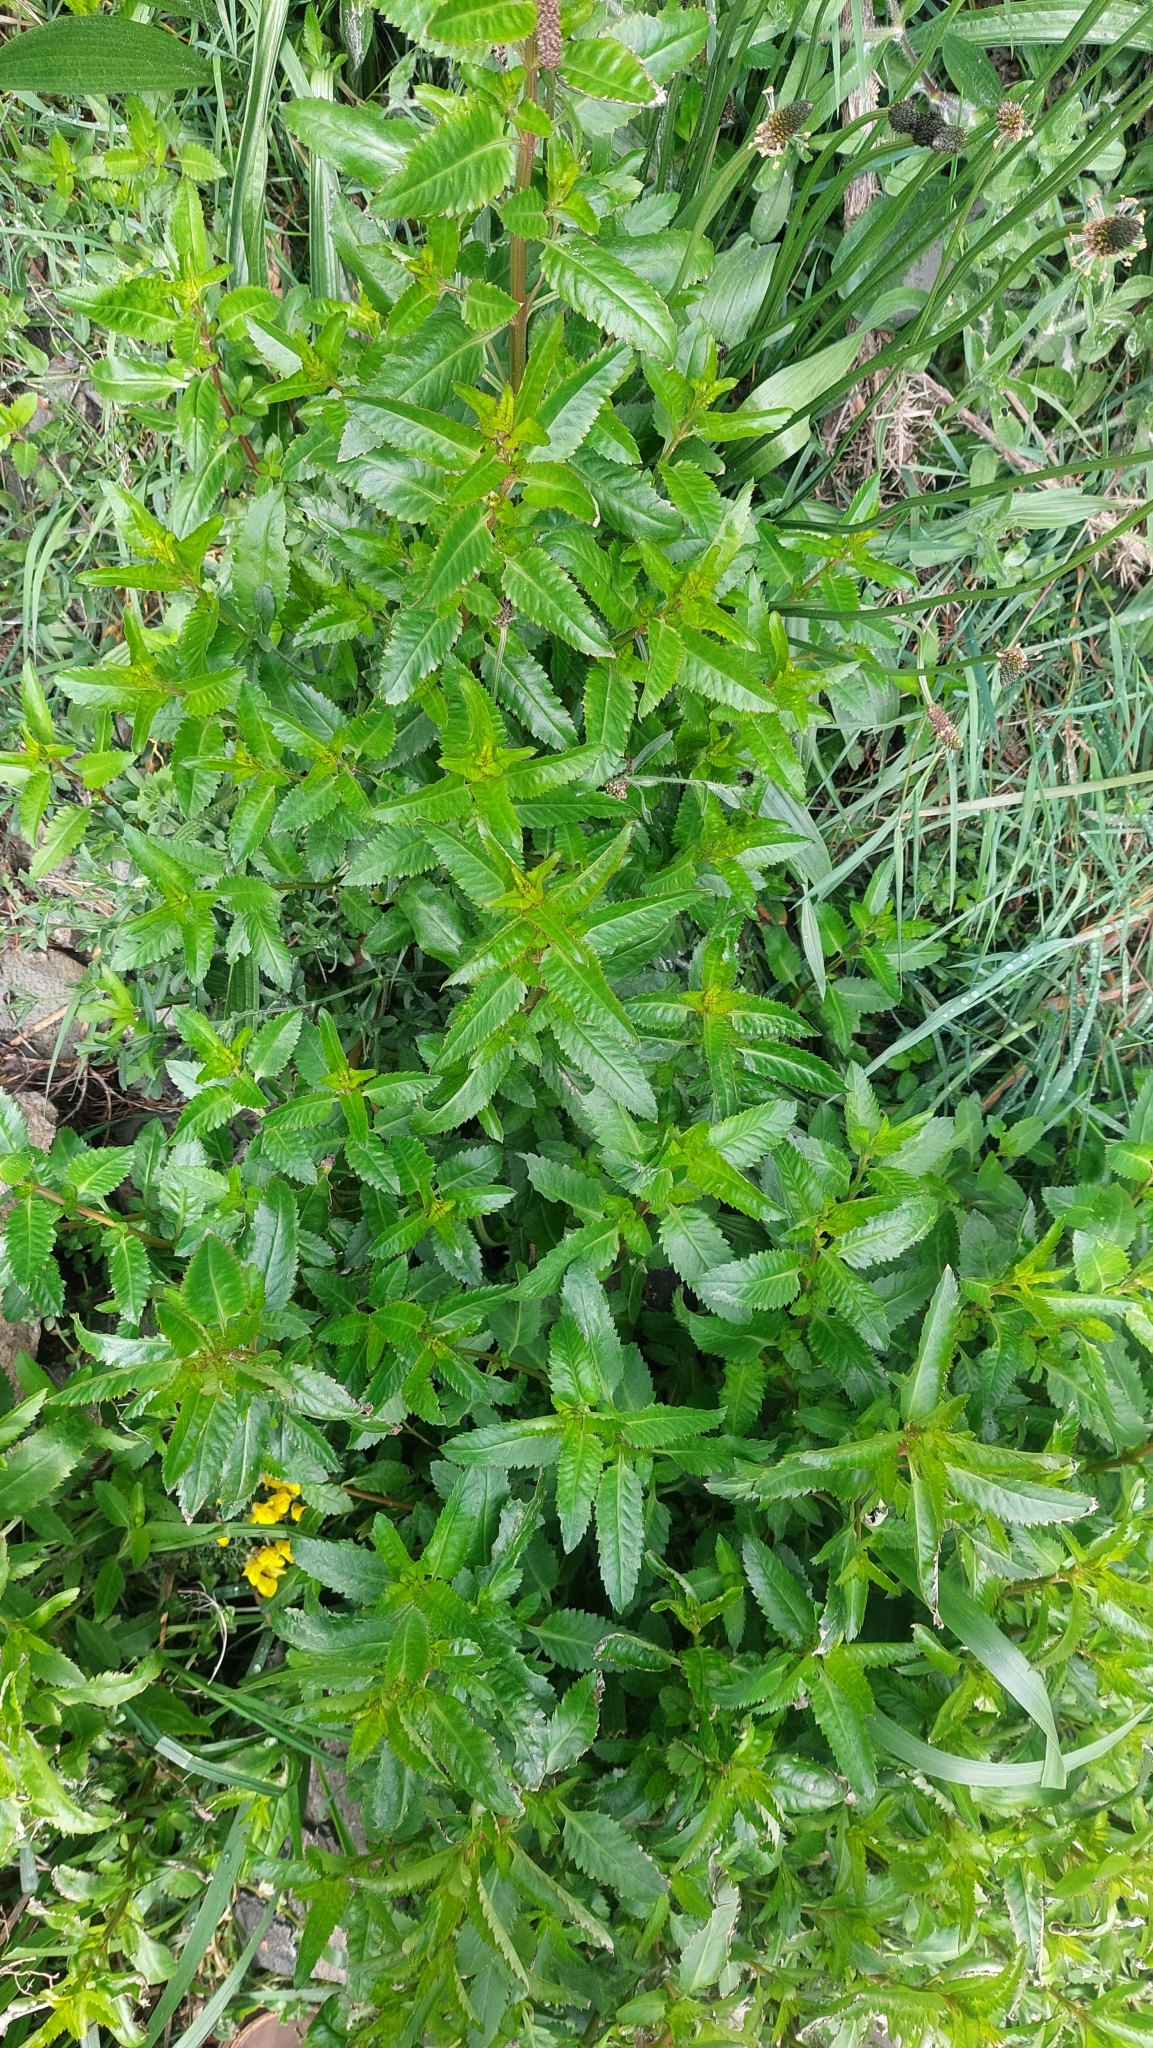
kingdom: Plantae
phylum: Tracheophyta
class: Magnoliopsida
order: Saxifragales
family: Haloragaceae
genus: Haloragis
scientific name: Haloragis erecta
